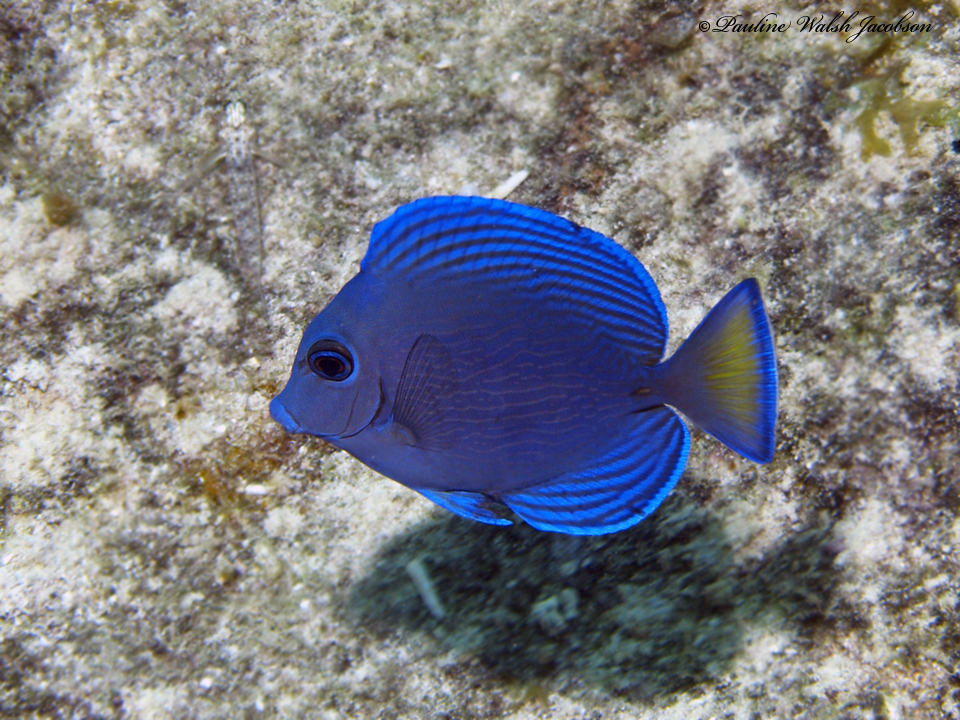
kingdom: Animalia
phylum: Chordata
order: Perciformes
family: Acanthuridae
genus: Acanthurus
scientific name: Acanthurus coeruleus
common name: Blue tang
